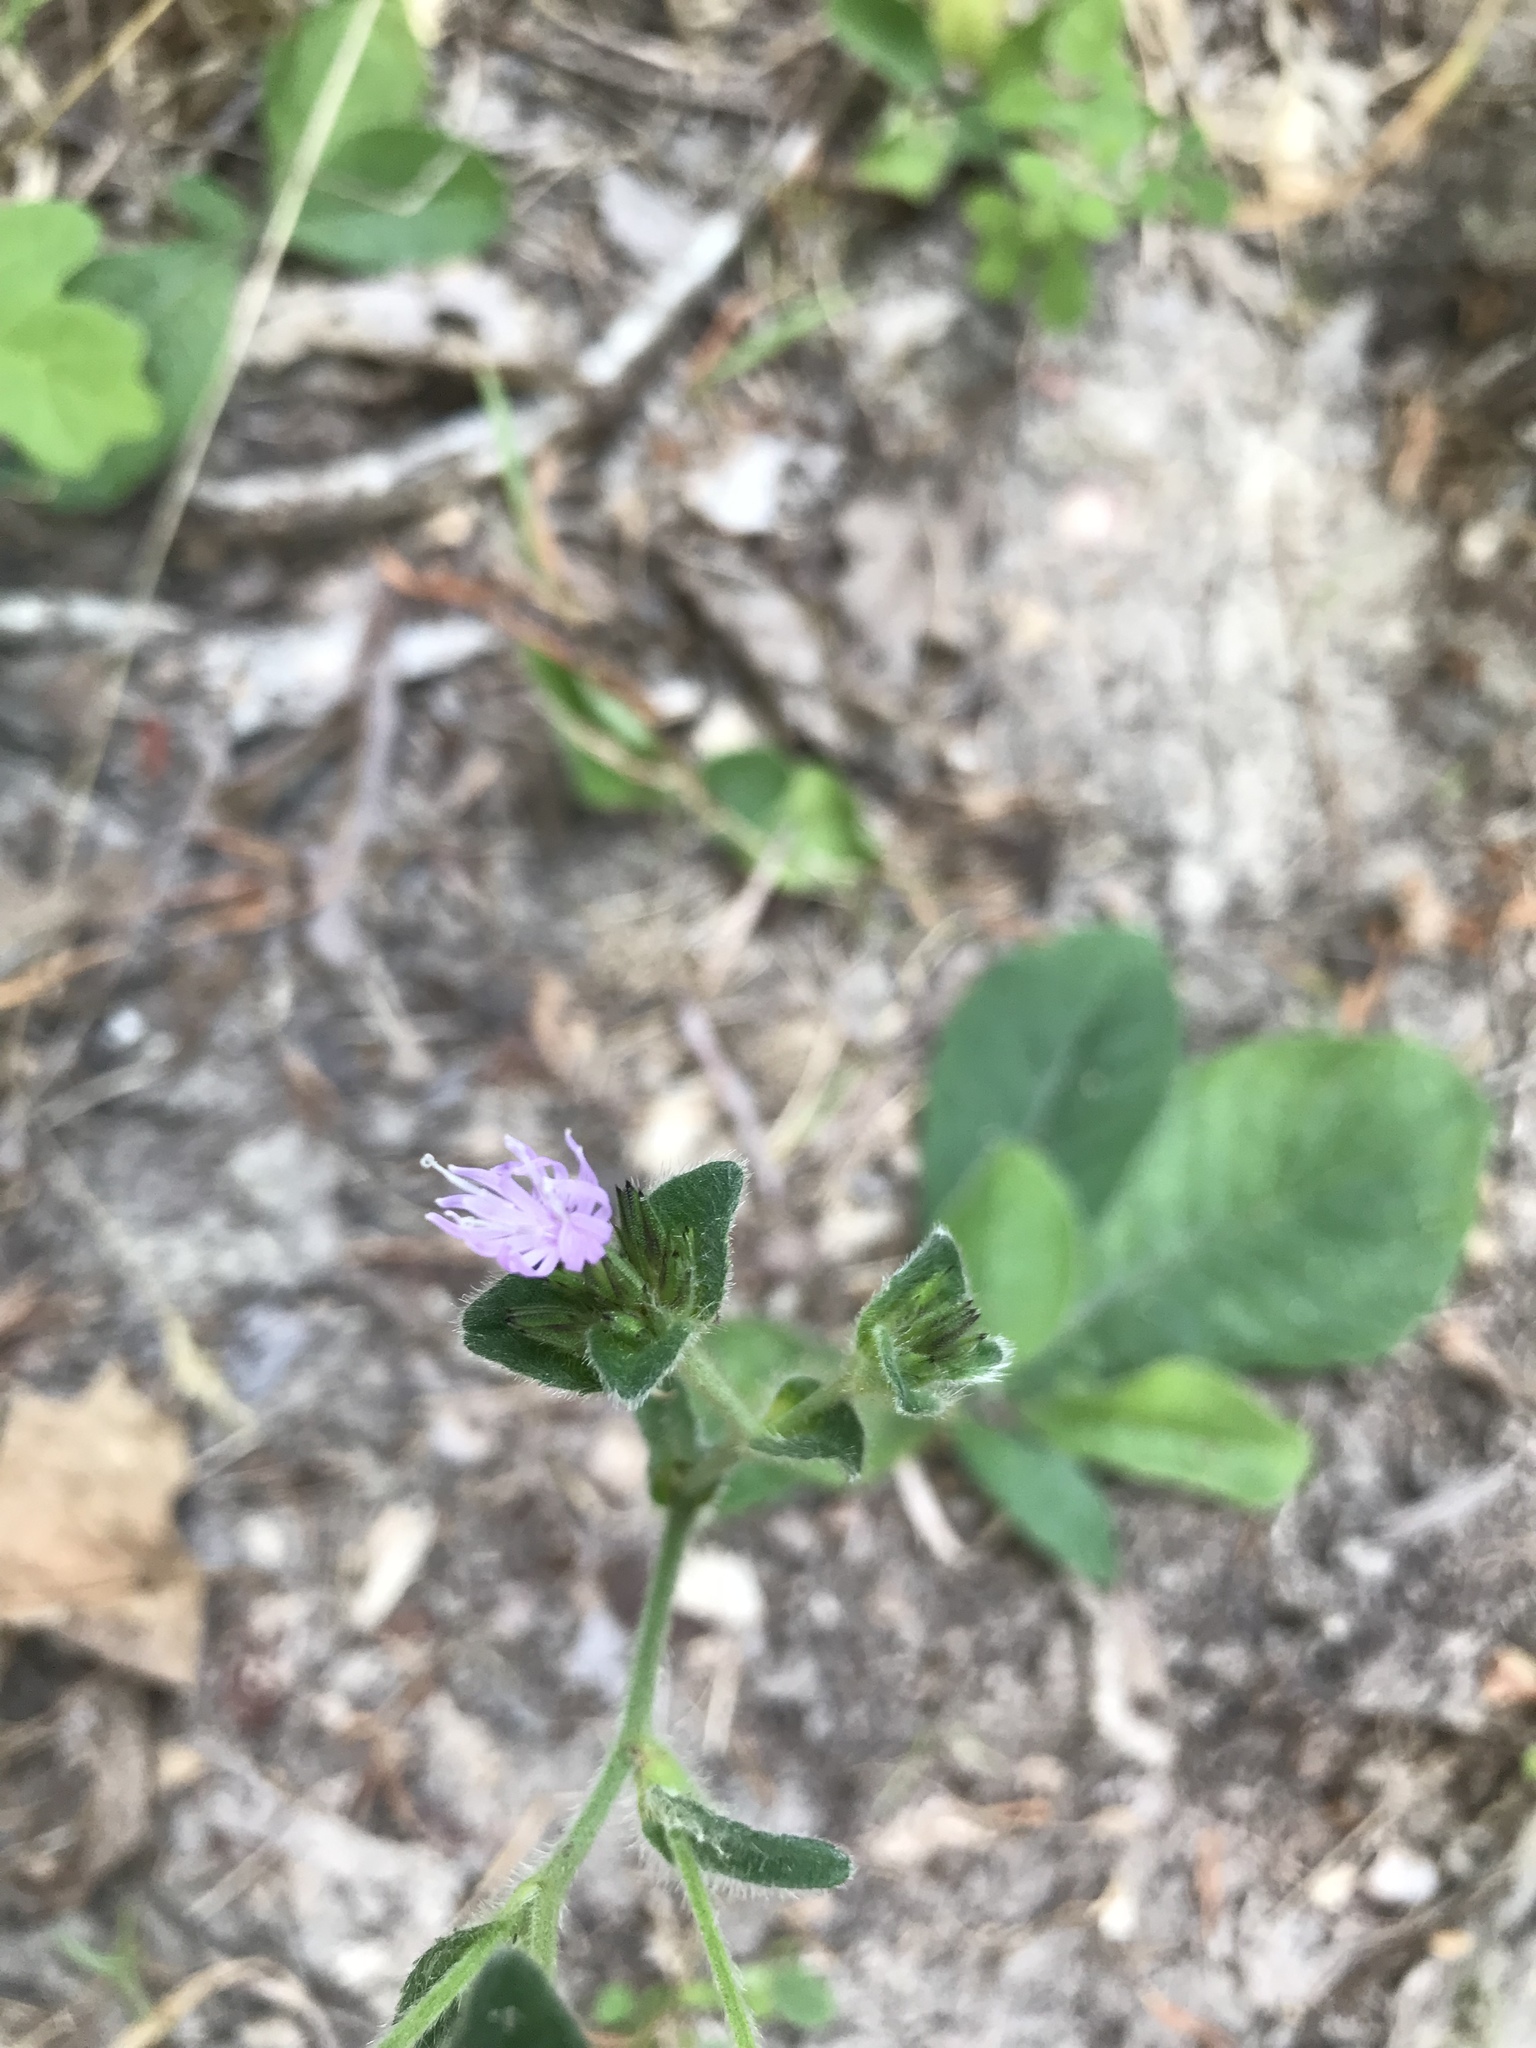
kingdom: Plantae
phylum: Tracheophyta
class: Magnoliopsida
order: Asterales
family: Asteraceae
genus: Elephantopus
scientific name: Elephantopus tomentosus
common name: Tobacco-weed
